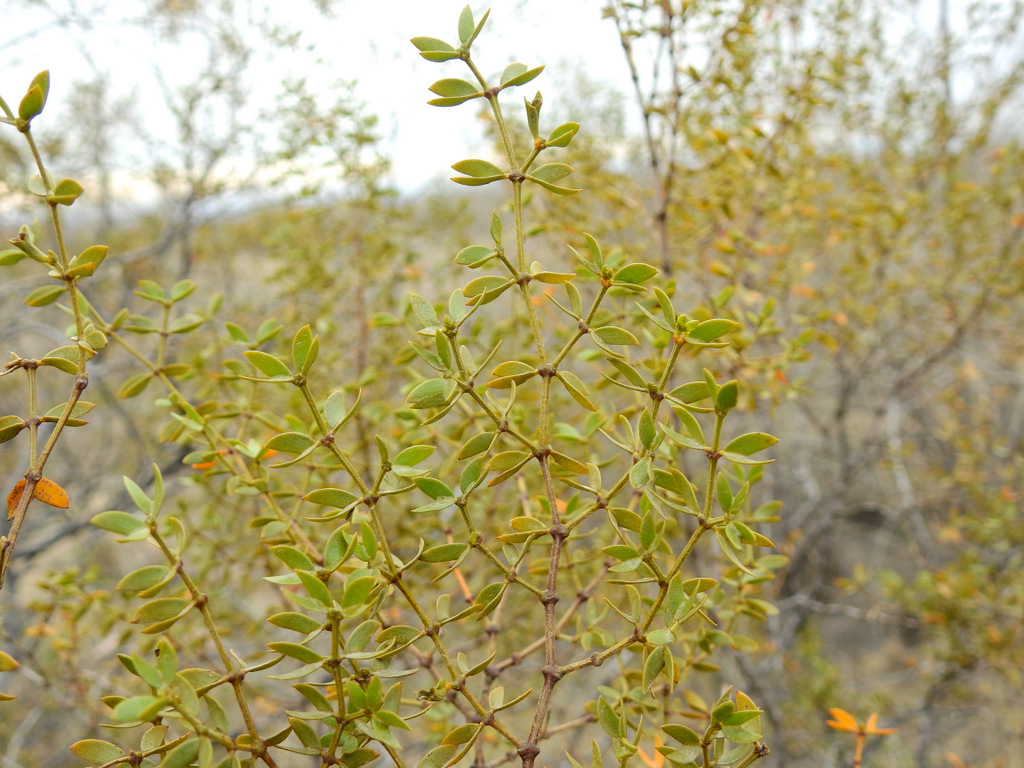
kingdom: Plantae
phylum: Tracheophyta
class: Magnoliopsida
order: Zygophyllales
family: Zygophyllaceae
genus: Larrea
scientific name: Larrea divaricata
